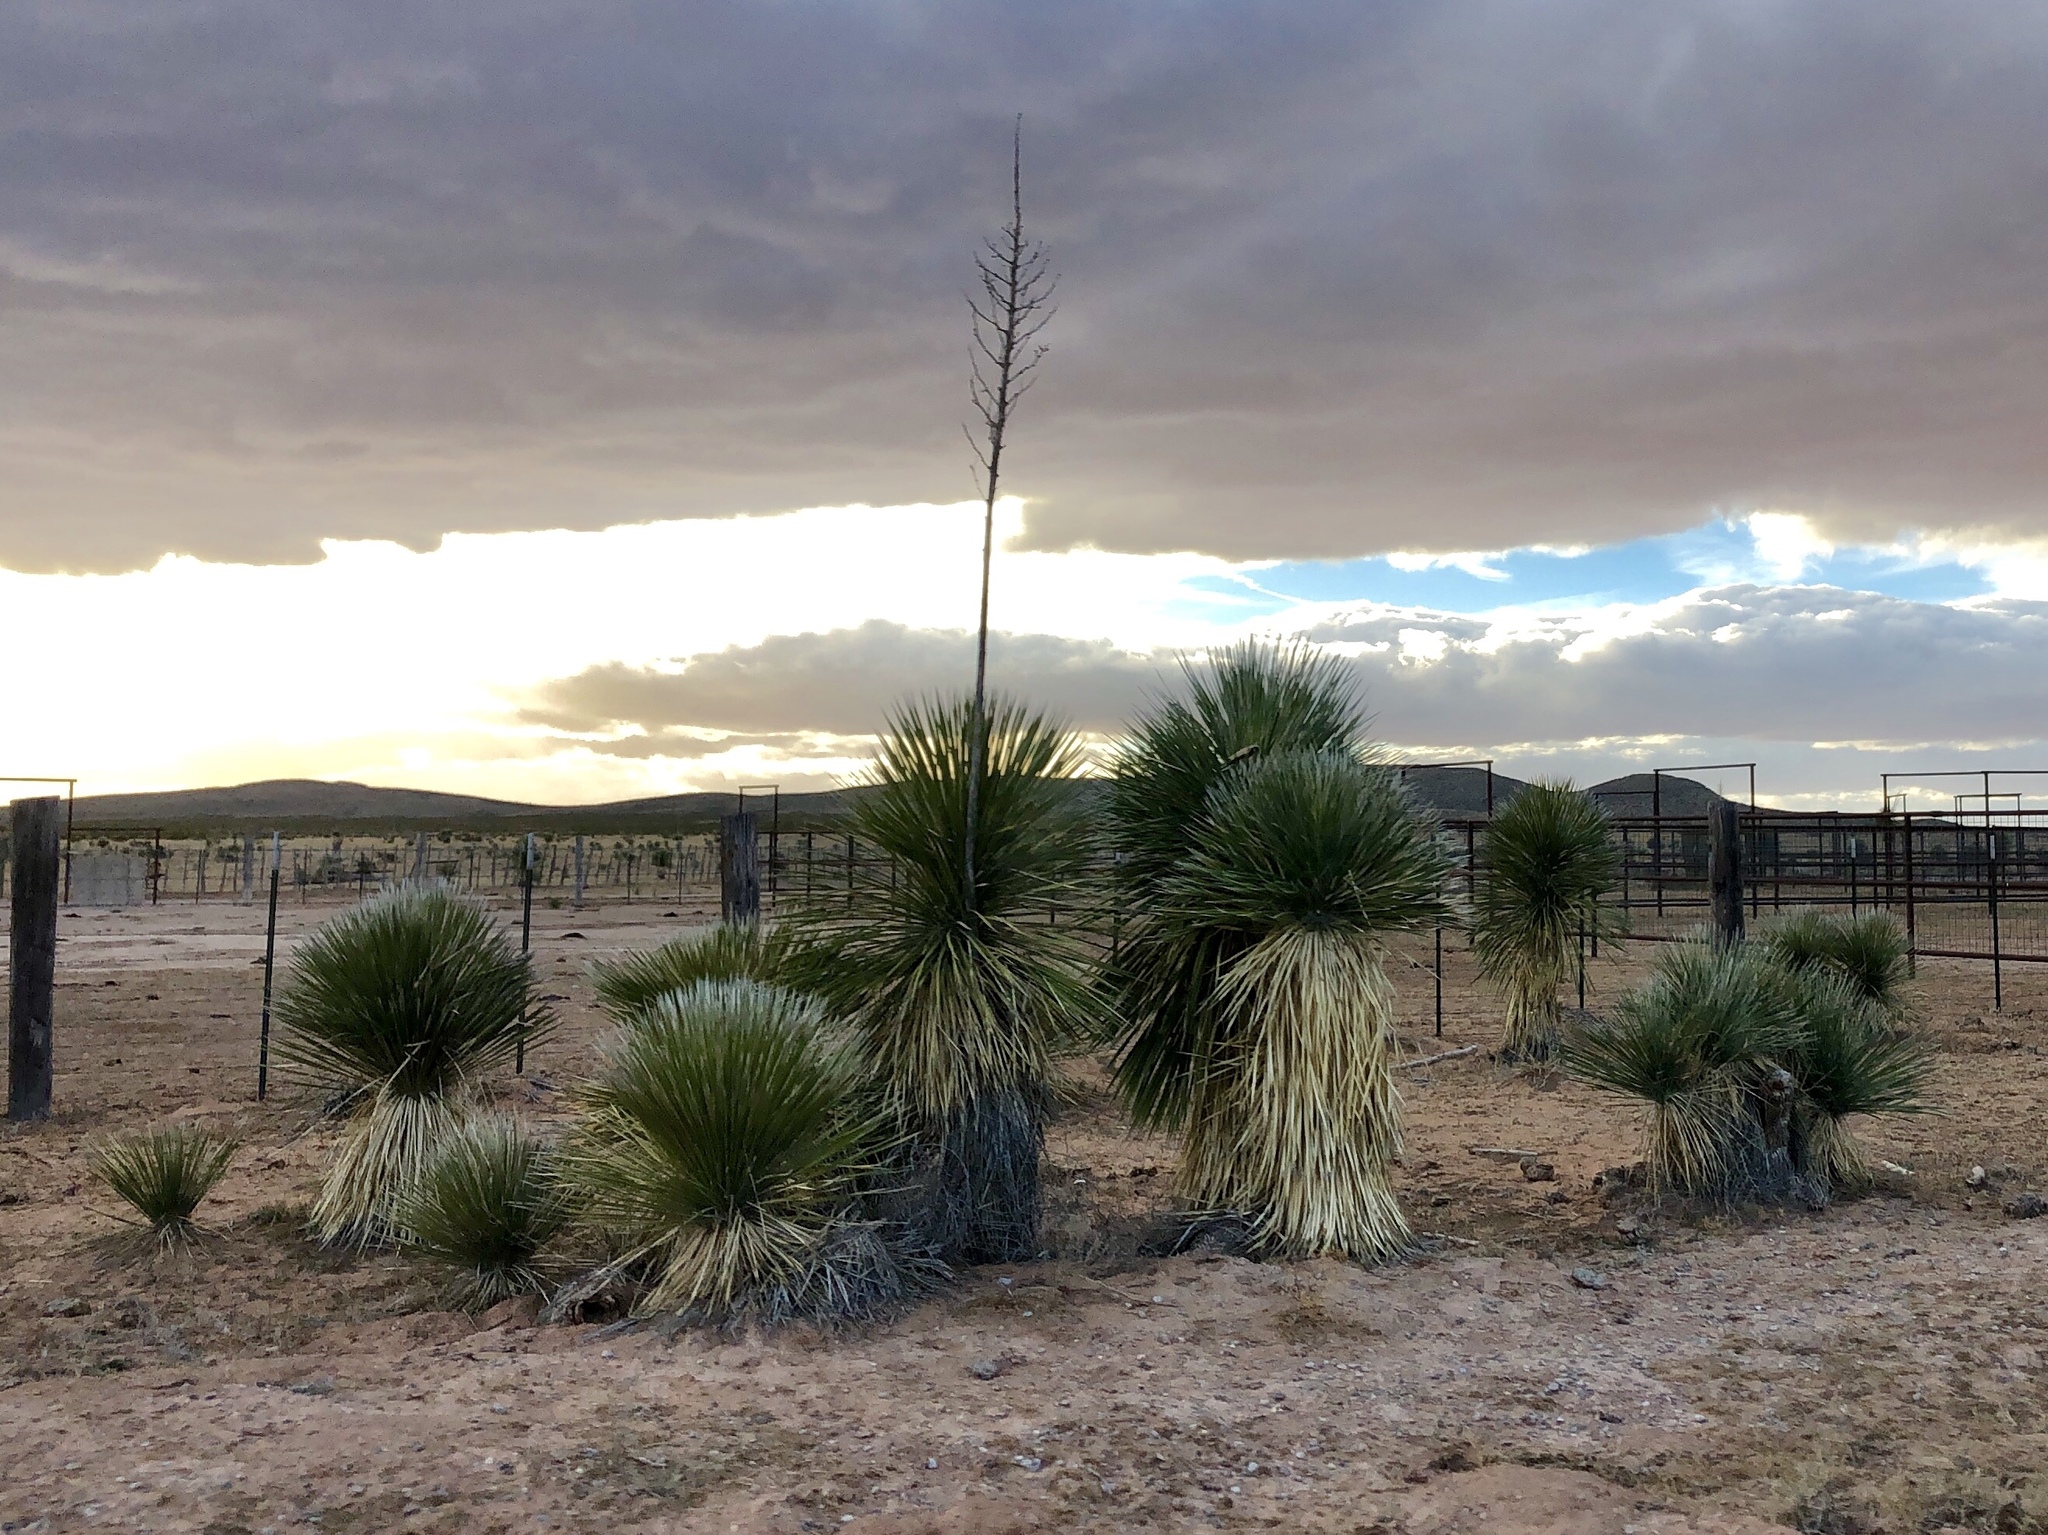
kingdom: Plantae
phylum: Tracheophyta
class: Liliopsida
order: Asparagales
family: Asparagaceae
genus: Yucca
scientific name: Yucca elata
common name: Palmella
